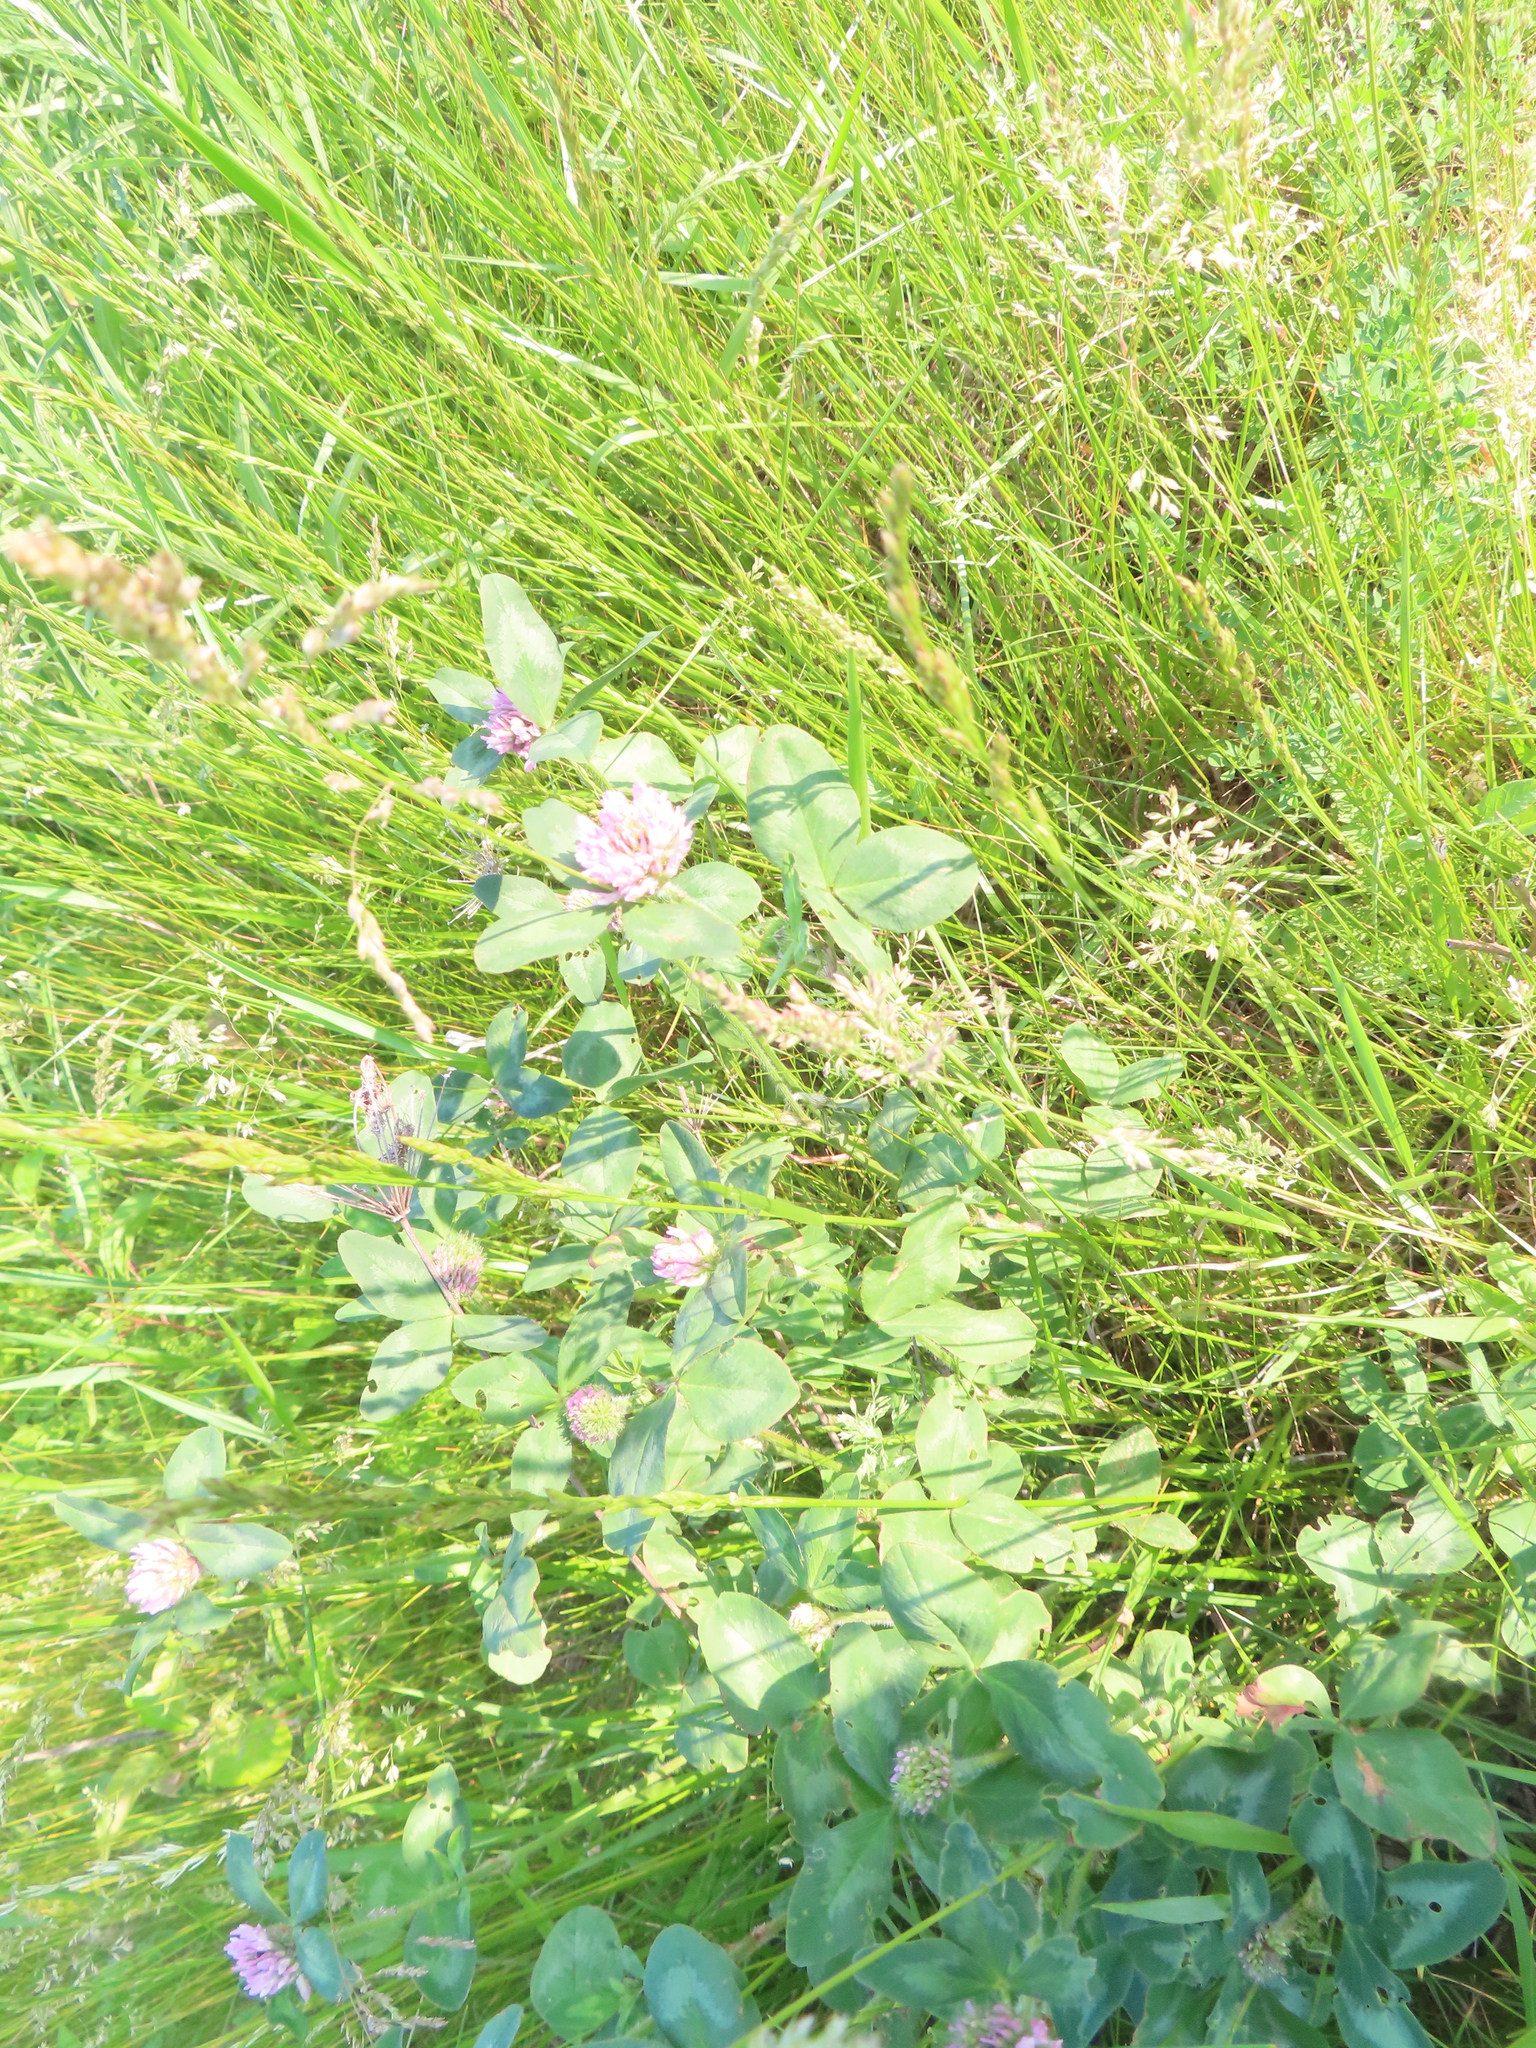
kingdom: Plantae
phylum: Tracheophyta
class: Magnoliopsida
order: Fabales
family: Fabaceae
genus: Trifolium
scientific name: Trifolium pratense
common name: Red clover
